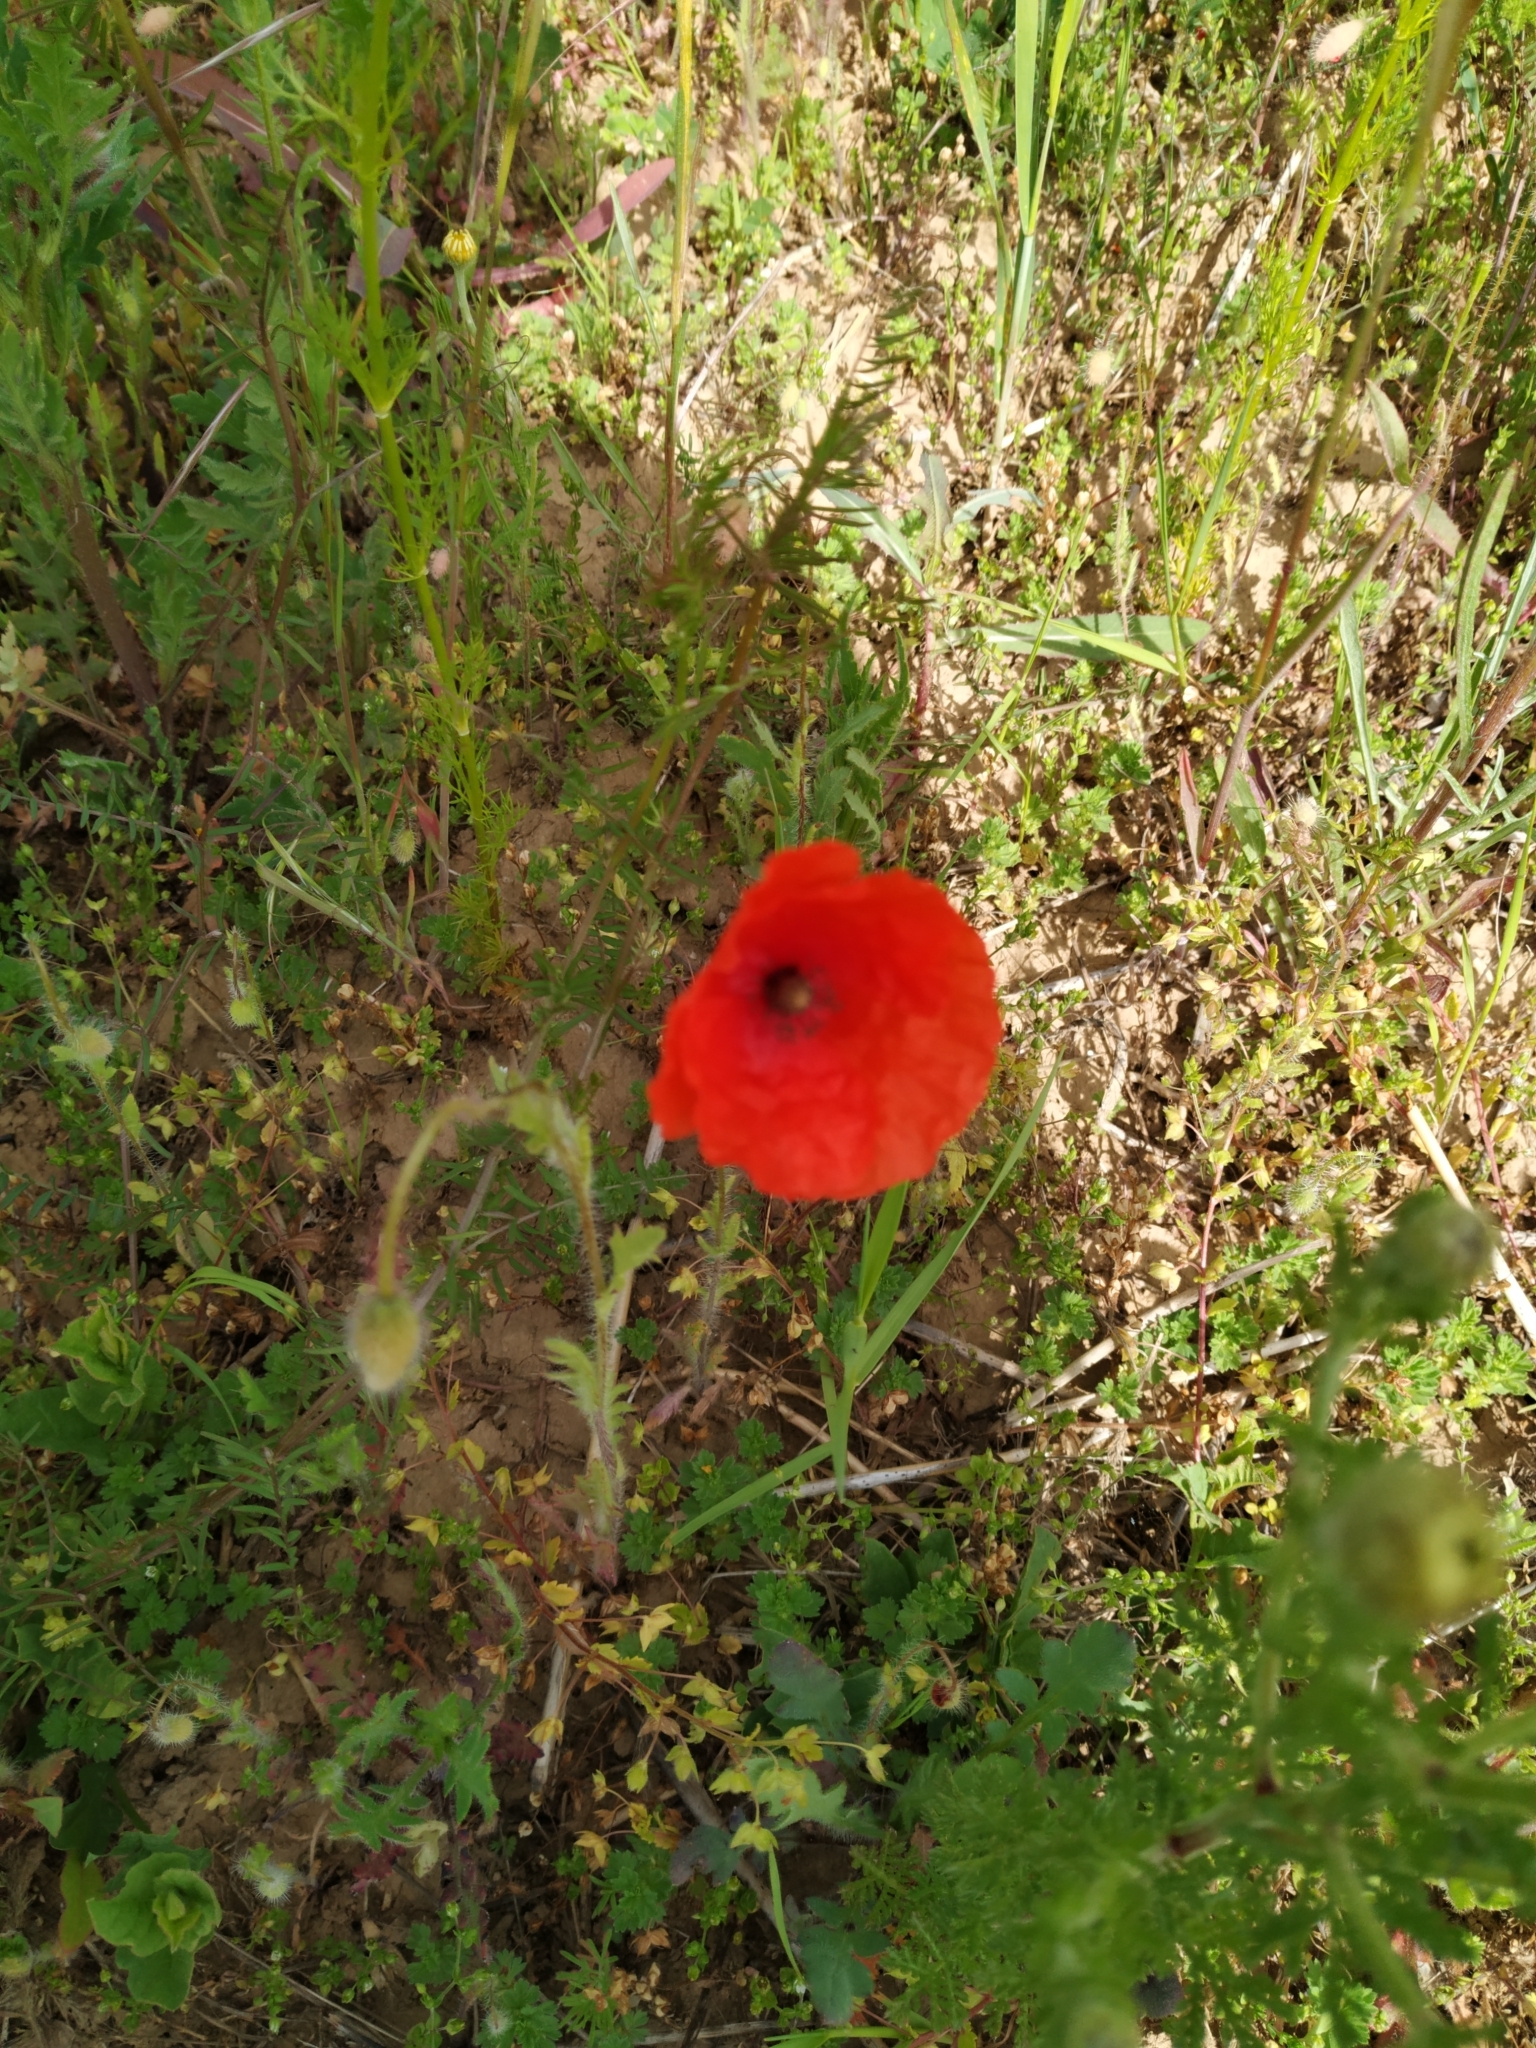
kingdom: Plantae
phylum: Tracheophyta
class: Magnoliopsida
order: Ranunculales
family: Papaveraceae
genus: Papaver
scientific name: Papaver rhoeas
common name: Corn poppy
